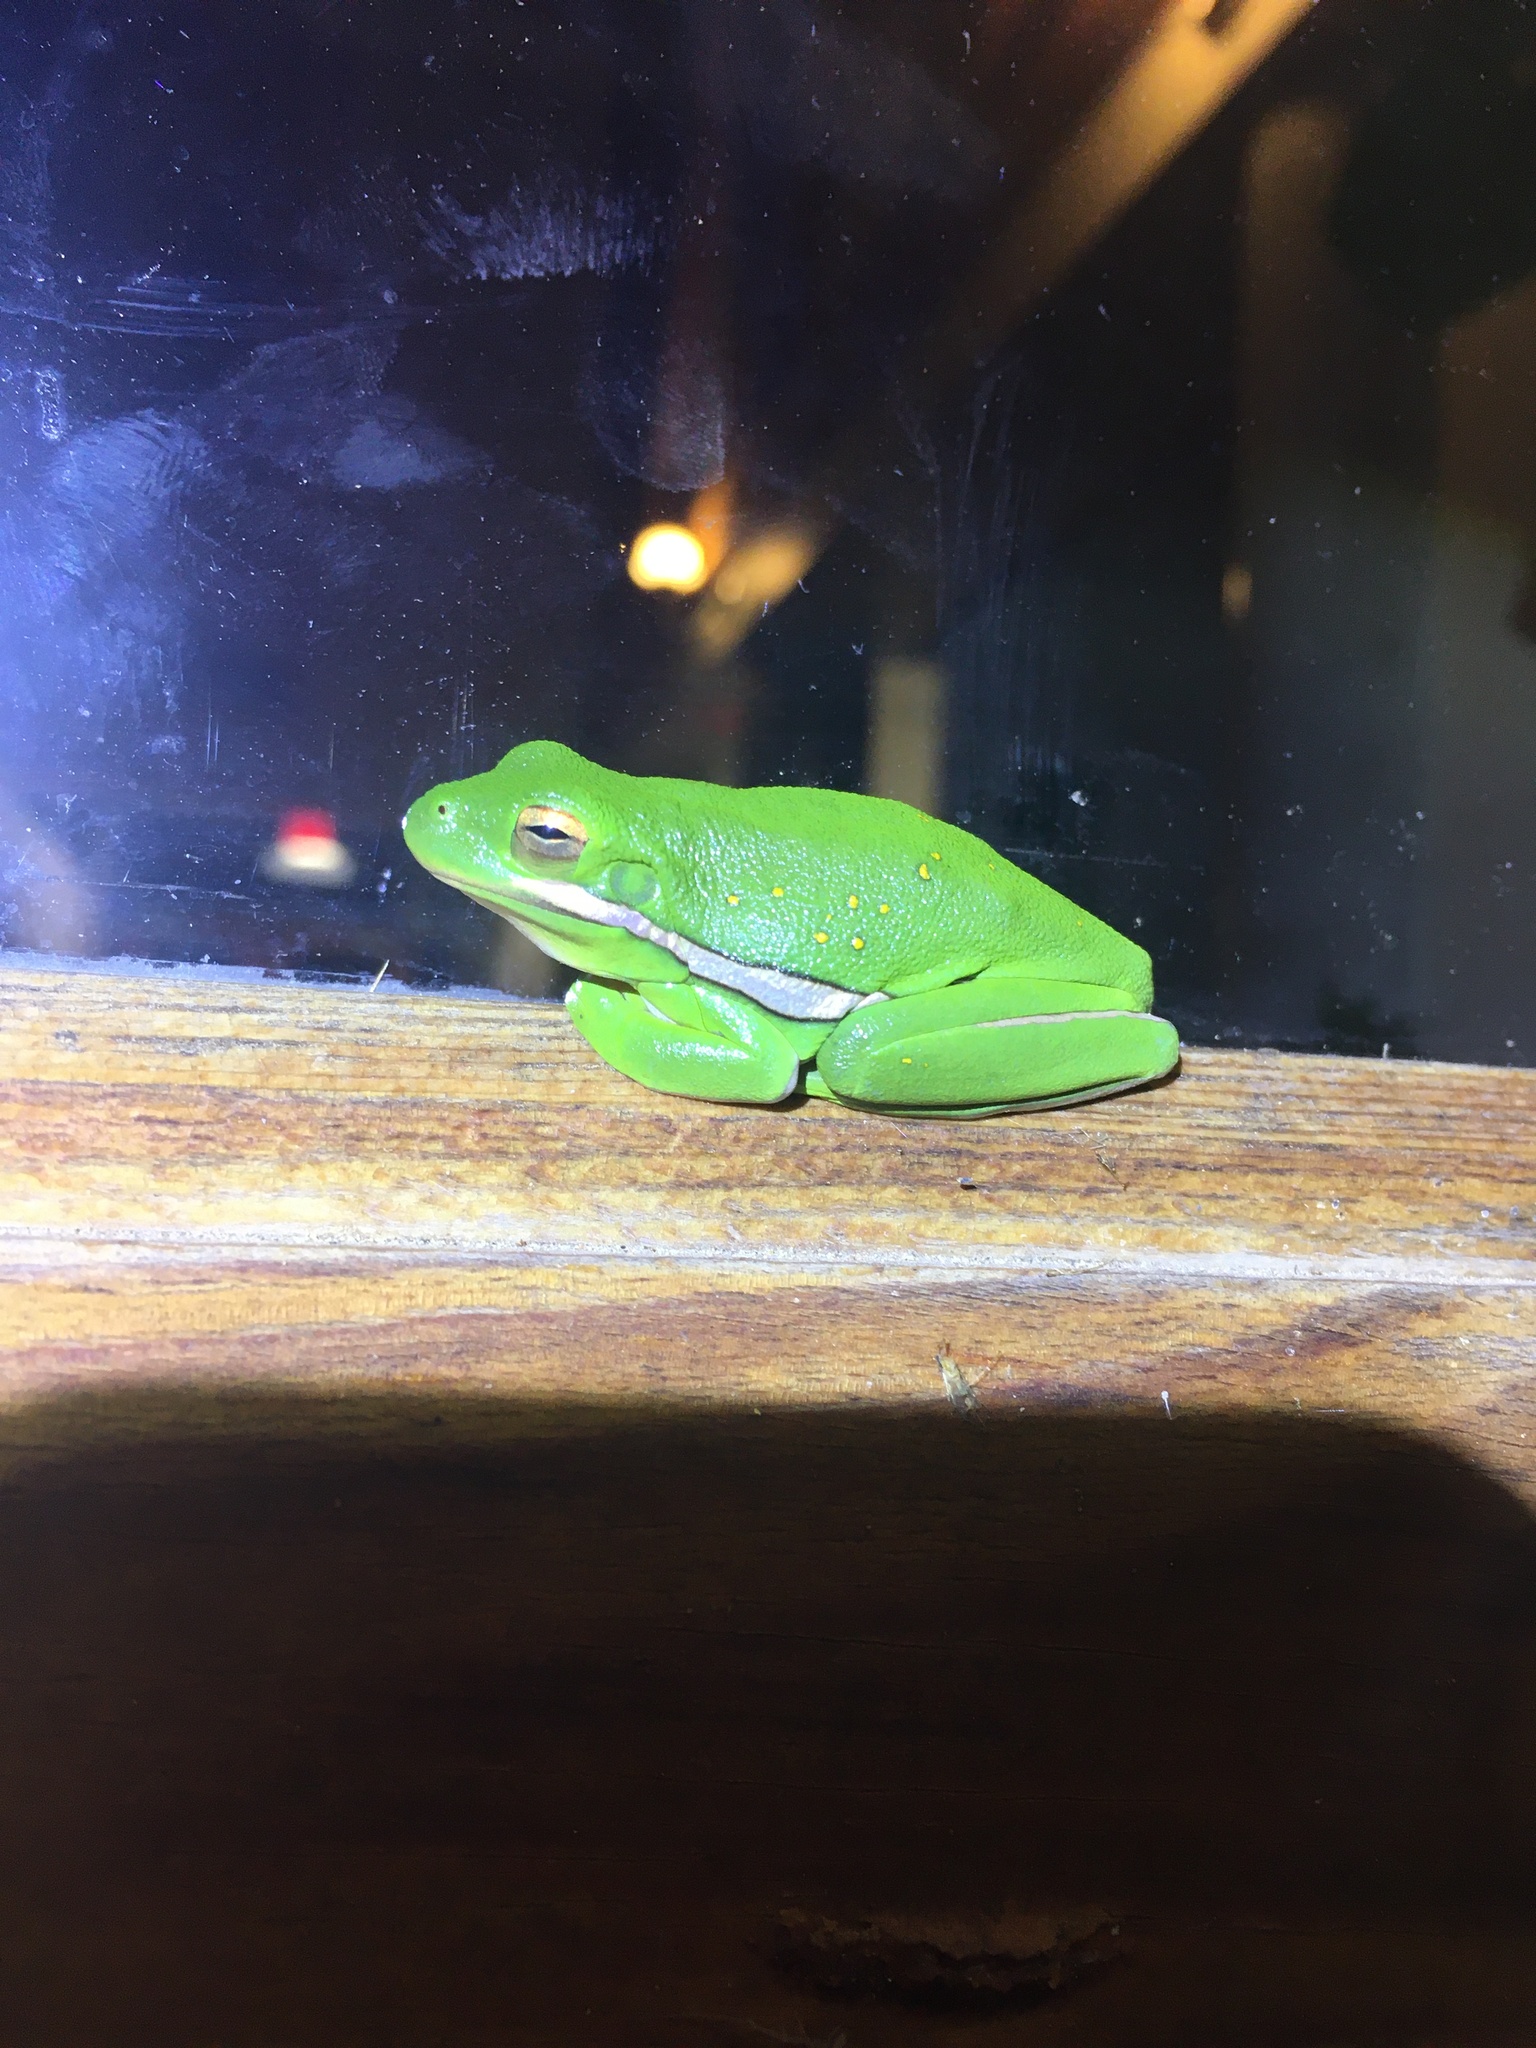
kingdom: Animalia
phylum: Chordata
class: Amphibia
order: Anura
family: Hylidae
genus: Dryophytes
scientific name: Dryophytes cinereus
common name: Green treefrog
